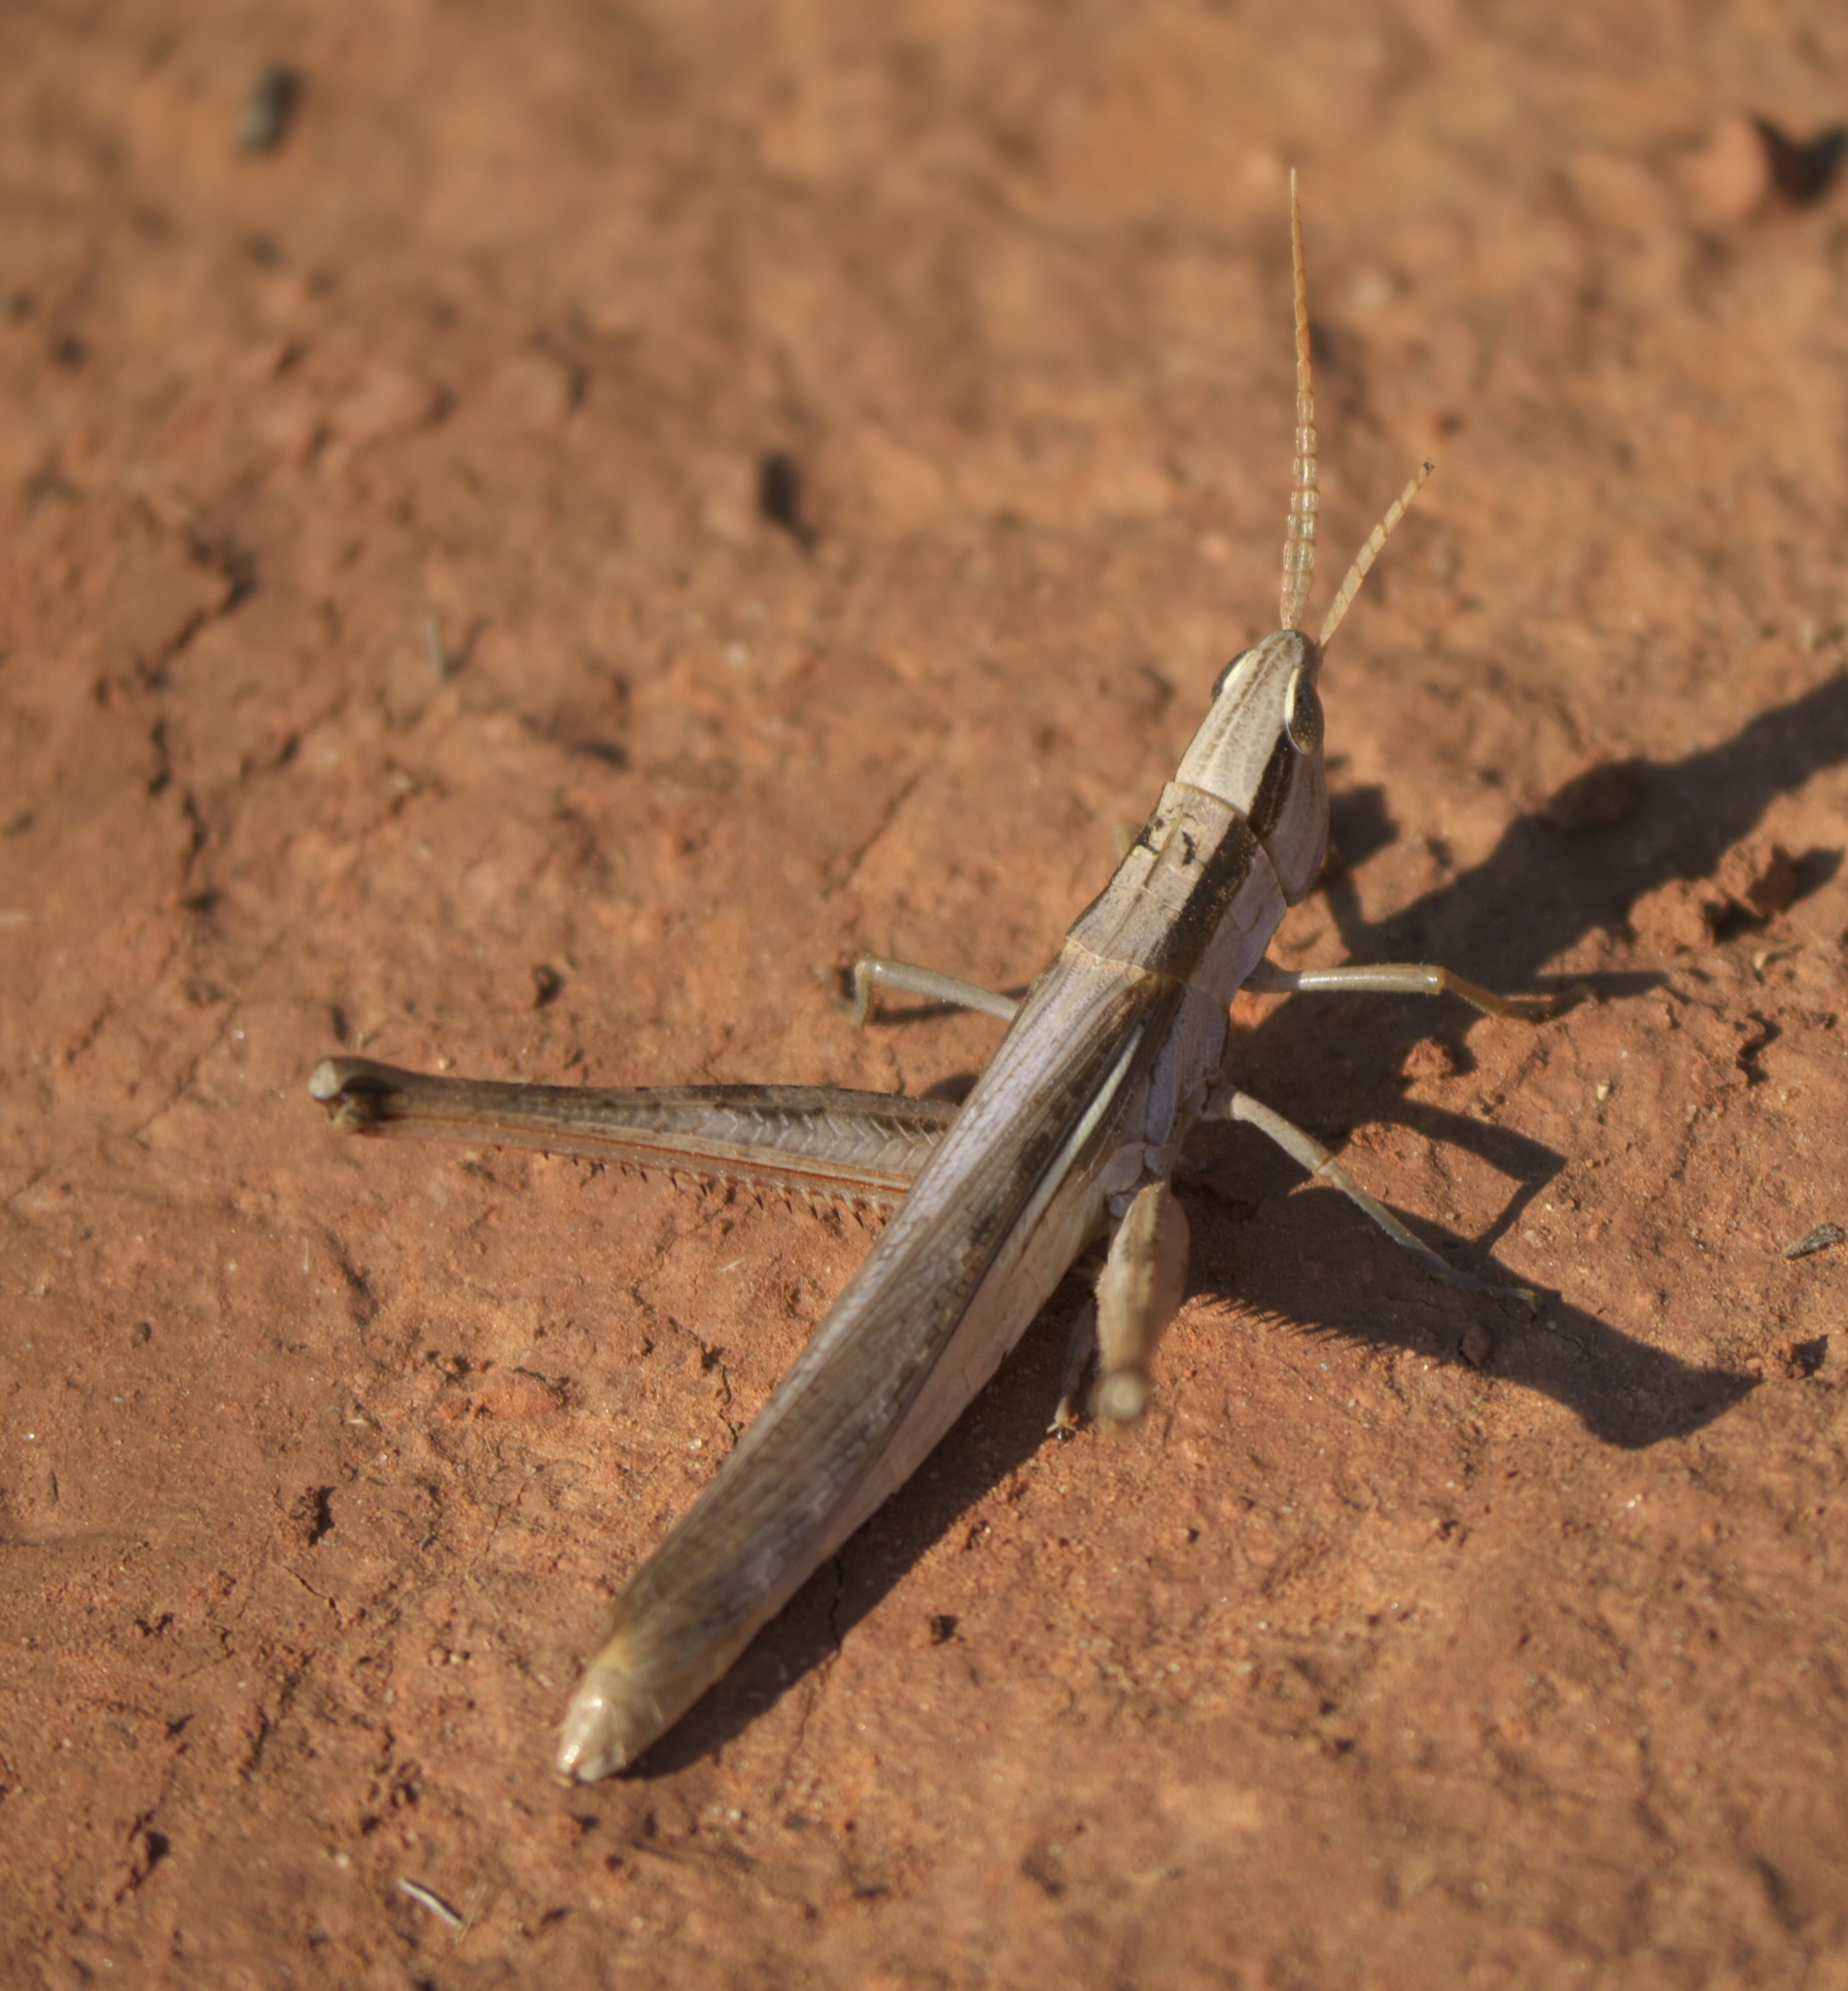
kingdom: Animalia
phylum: Arthropoda
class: Insecta
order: Orthoptera
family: Acrididae
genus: Mermiria
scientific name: Mermiria bivittata
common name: Two-striped mermiria grasshopper
